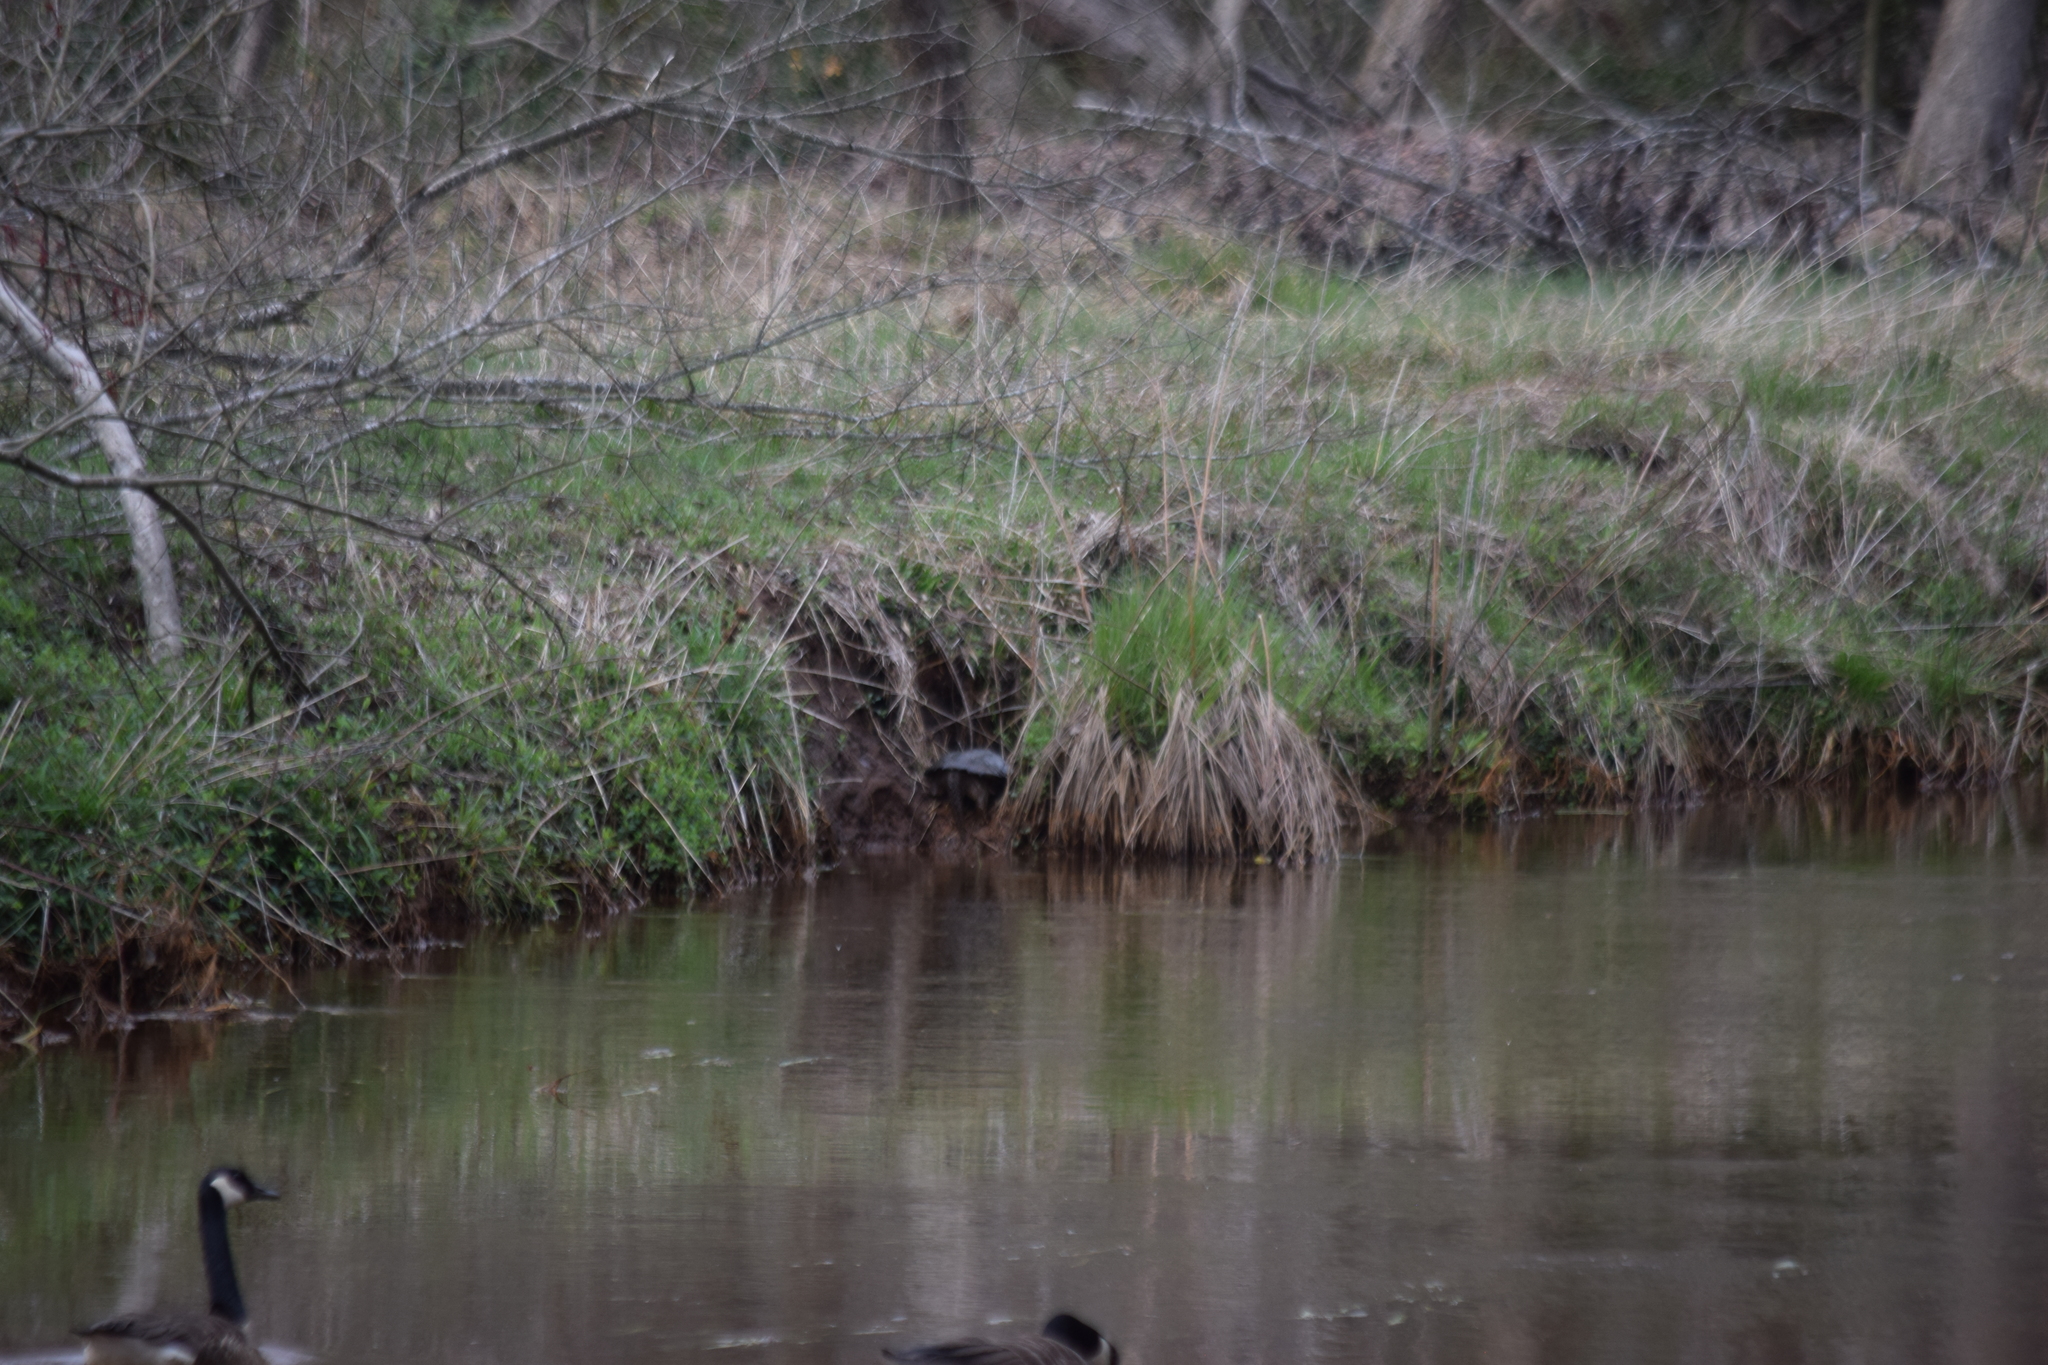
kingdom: Animalia
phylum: Chordata
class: Testudines
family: Chelydridae
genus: Chelydra
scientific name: Chelydra serpentina
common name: Common snapping turtle
